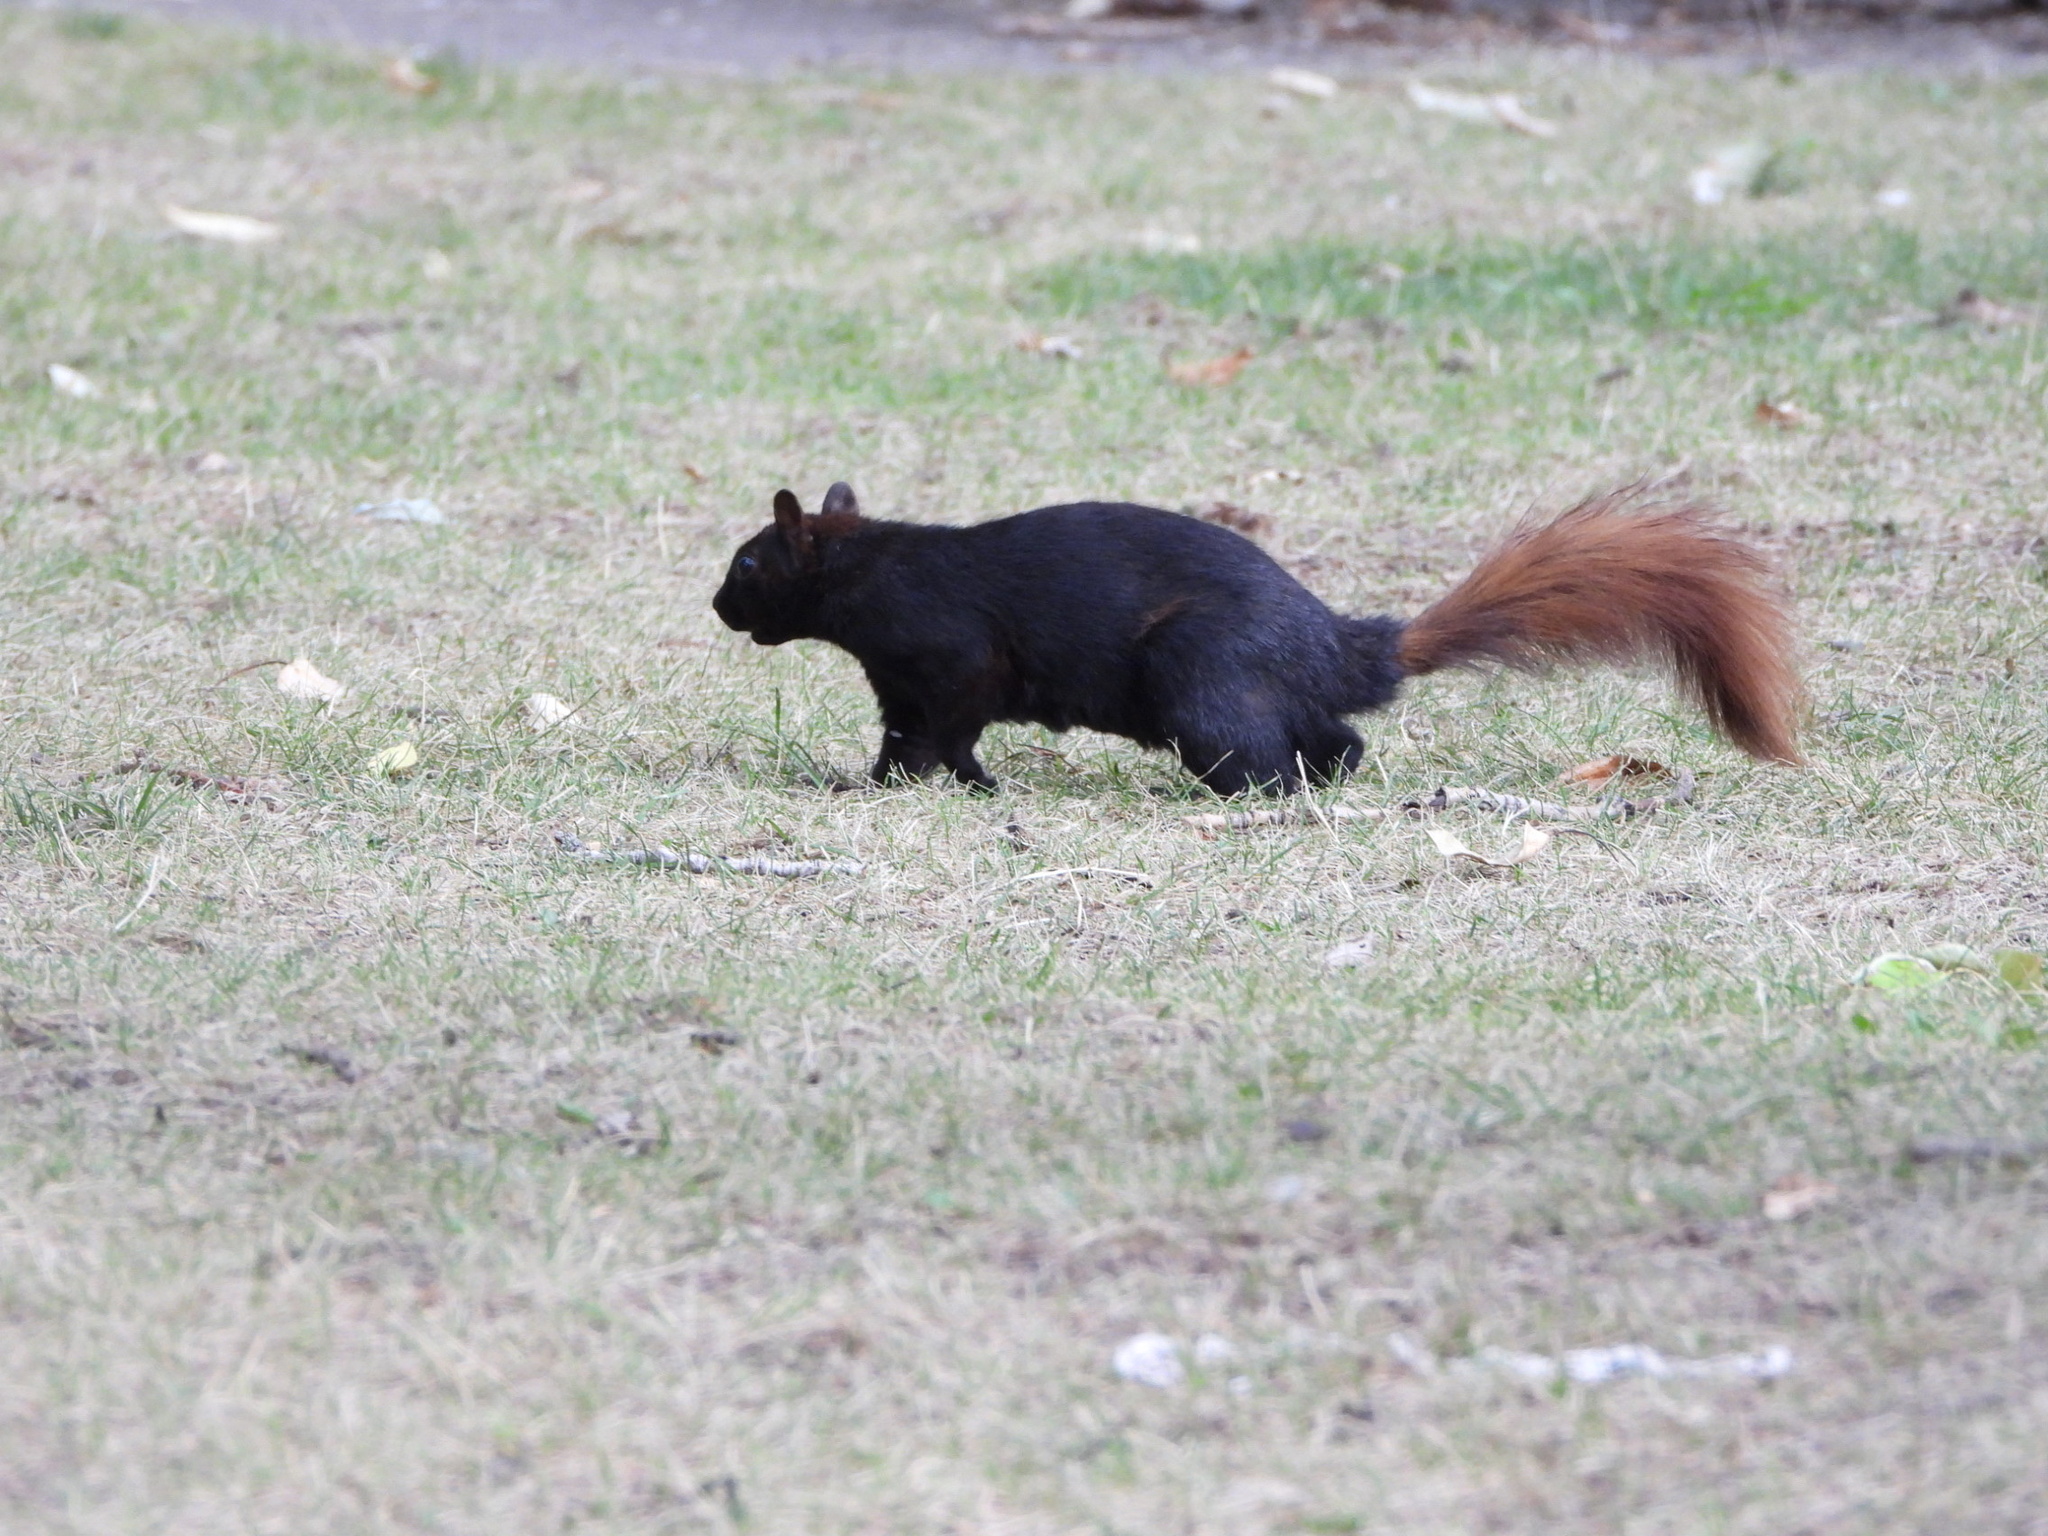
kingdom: Animalia
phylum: Chordata
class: Mammalia
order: Rodentia
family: Sciuridae
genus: Sciurus
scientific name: Sciurus carolinensis
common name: Eastern gray squirrel
